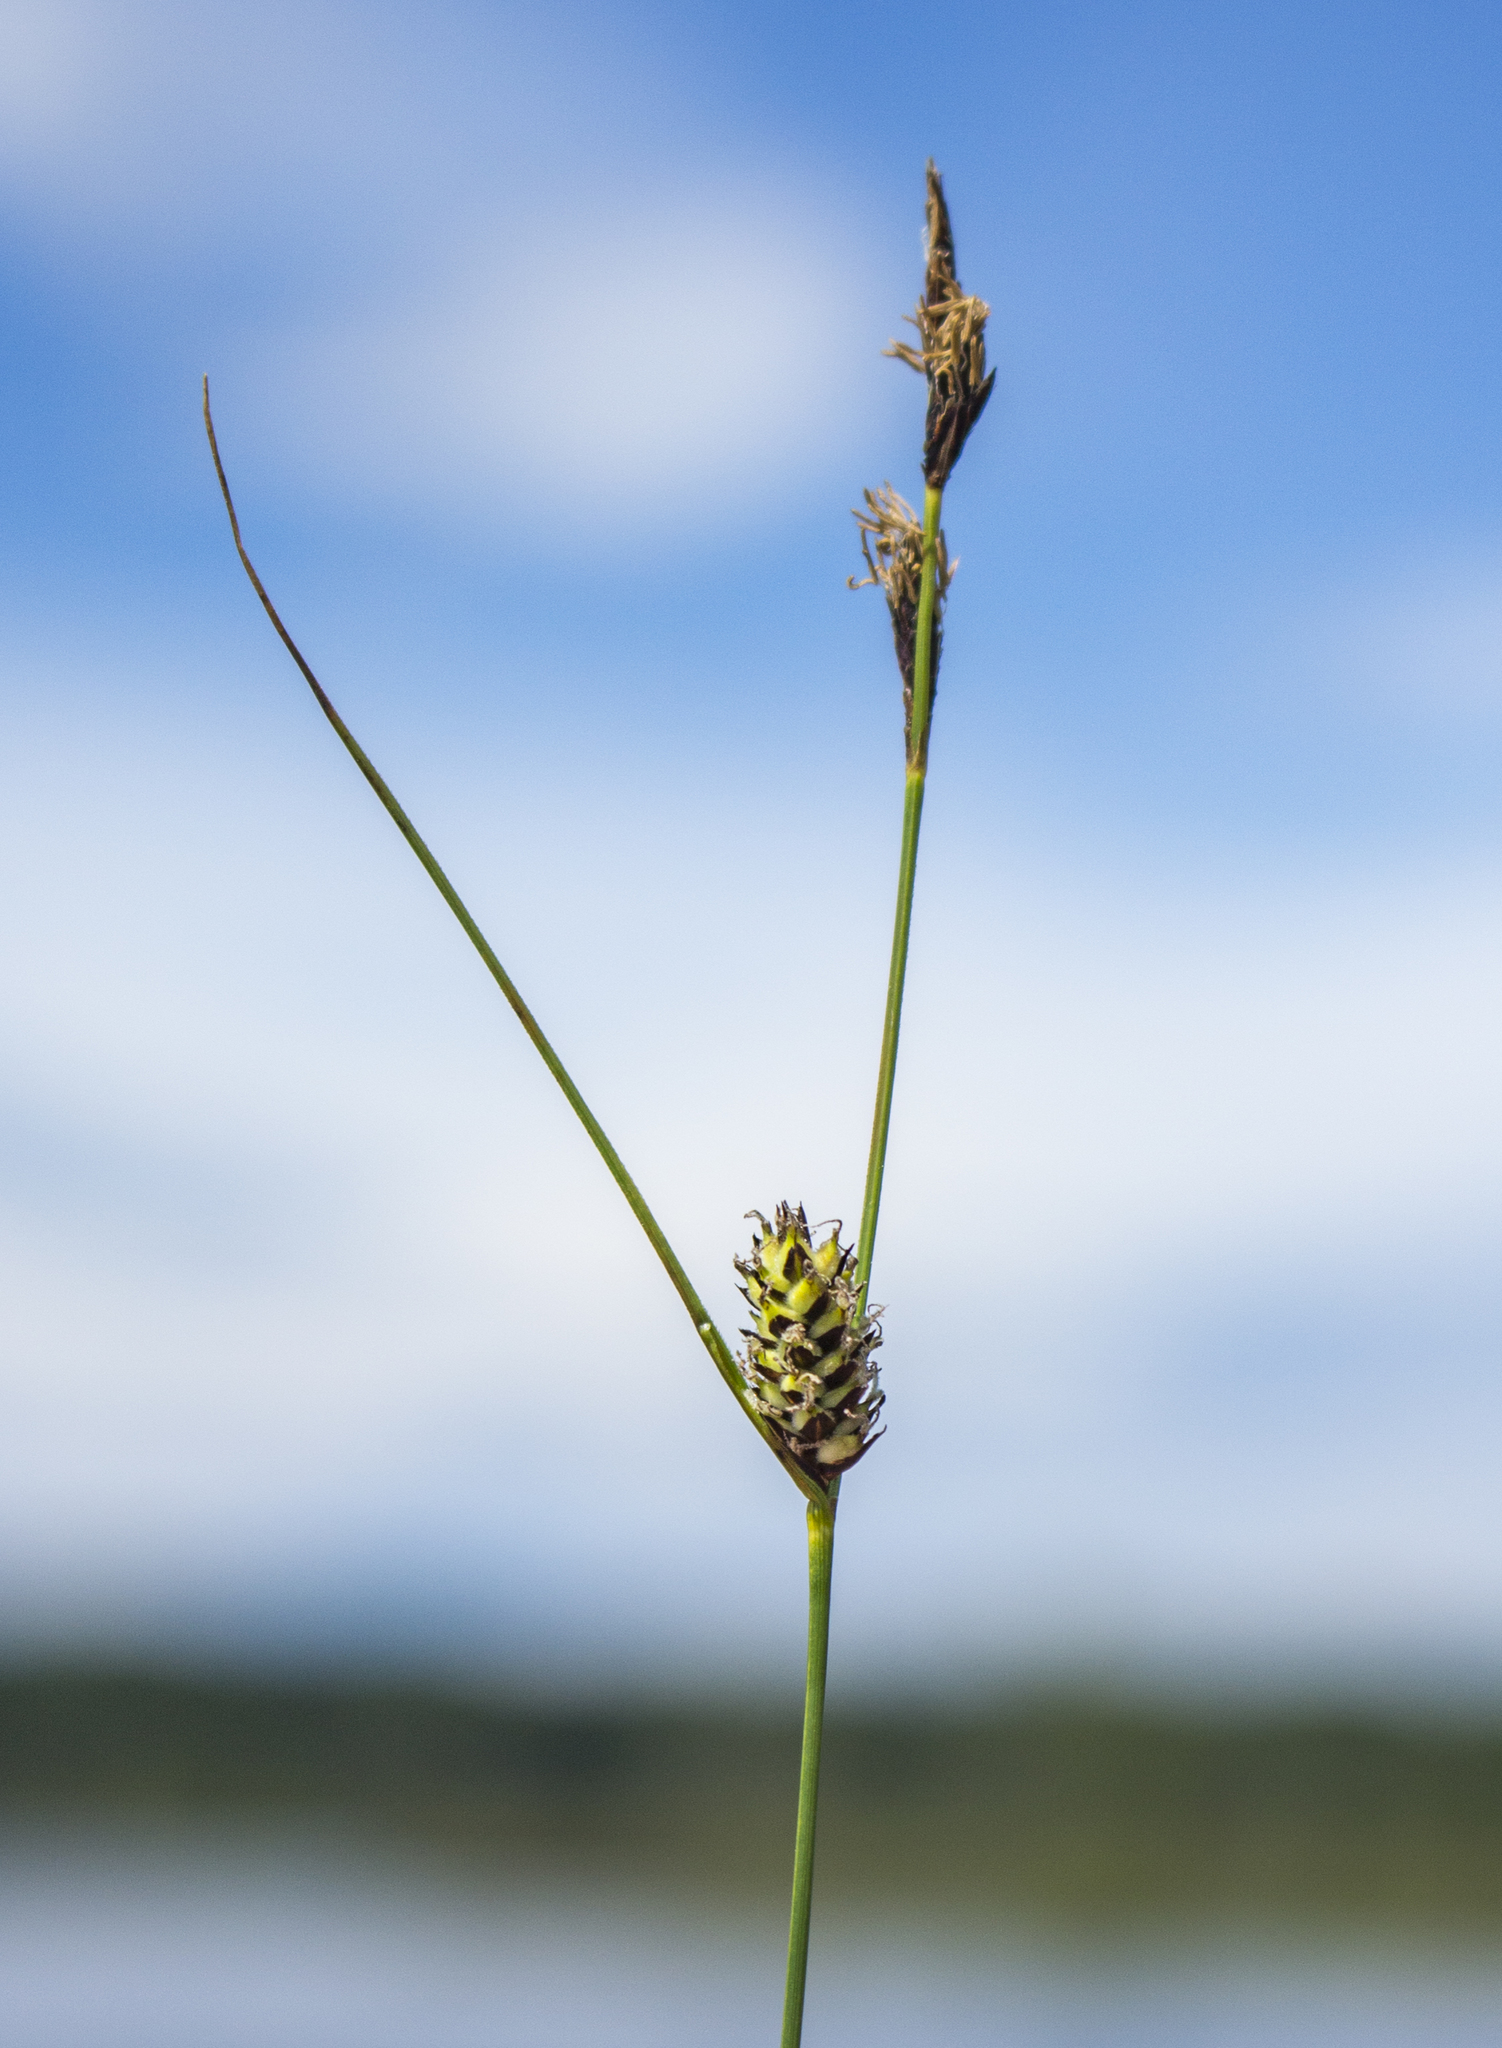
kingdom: Plantae
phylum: Tracheophyta
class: Liliopsida
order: Poales
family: Cyperaceae
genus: Carex
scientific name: Carex lasiocarpa
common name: Slender sedge
